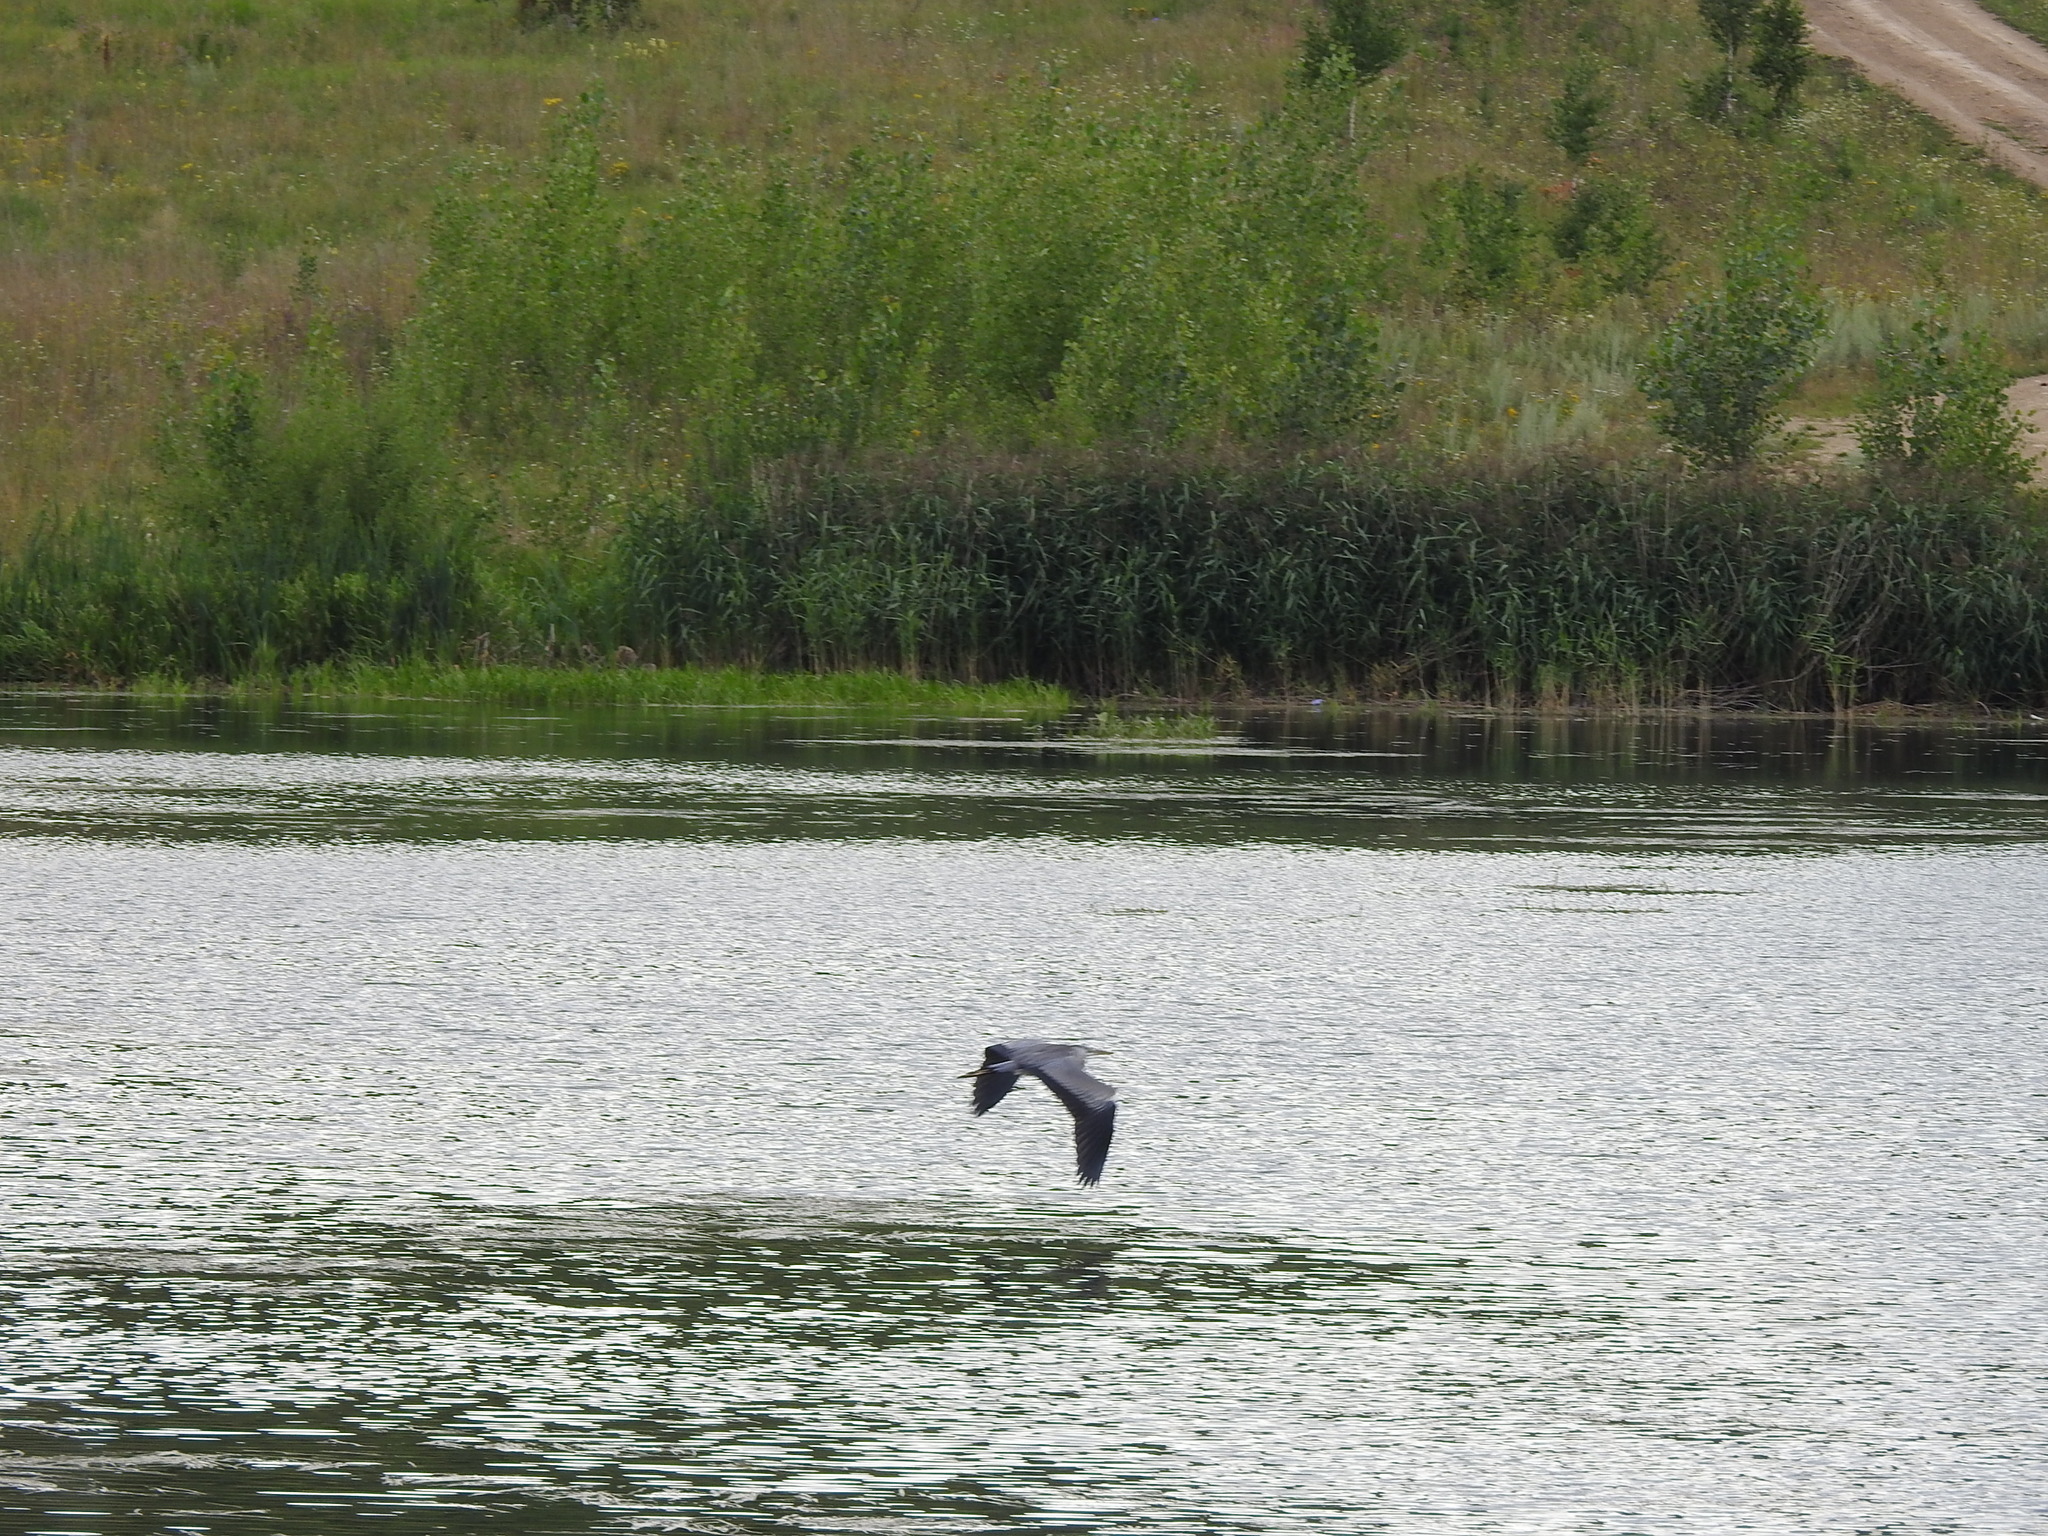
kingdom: Animalia
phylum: Chordata
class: Aves
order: Pelecaniformes
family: Ardeidae
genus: Ardea
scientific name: Ardea cinerea
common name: Grey heron
